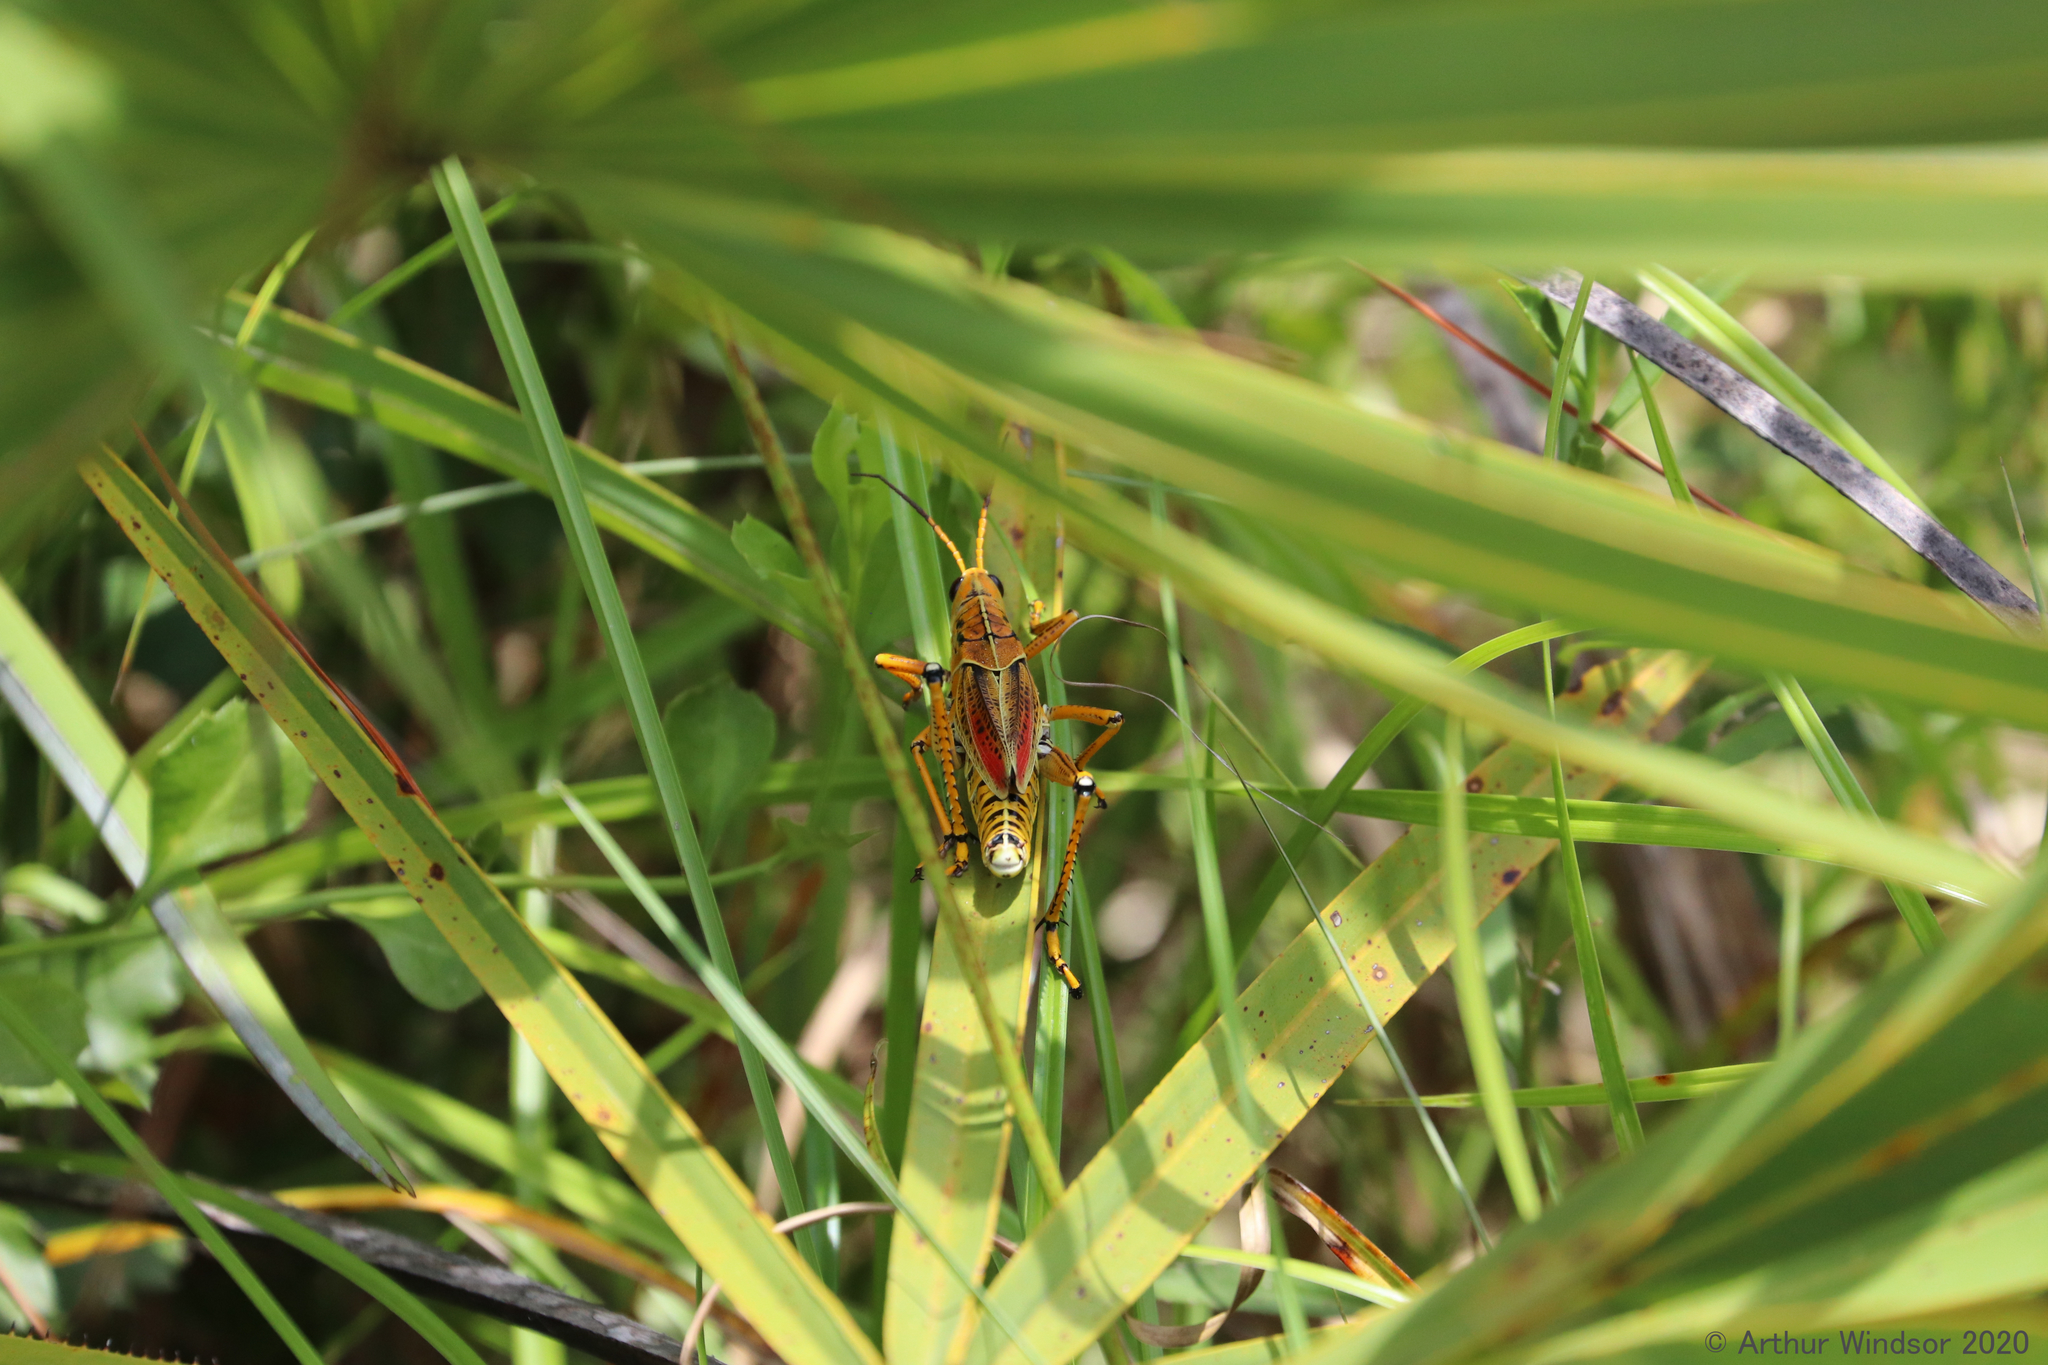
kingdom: Animalia
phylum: Arthropoda
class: Insecta
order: Orthoptera
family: Romaleidae
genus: Romalea
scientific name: Romalea microptera
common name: Eastern lubber grasshopper
